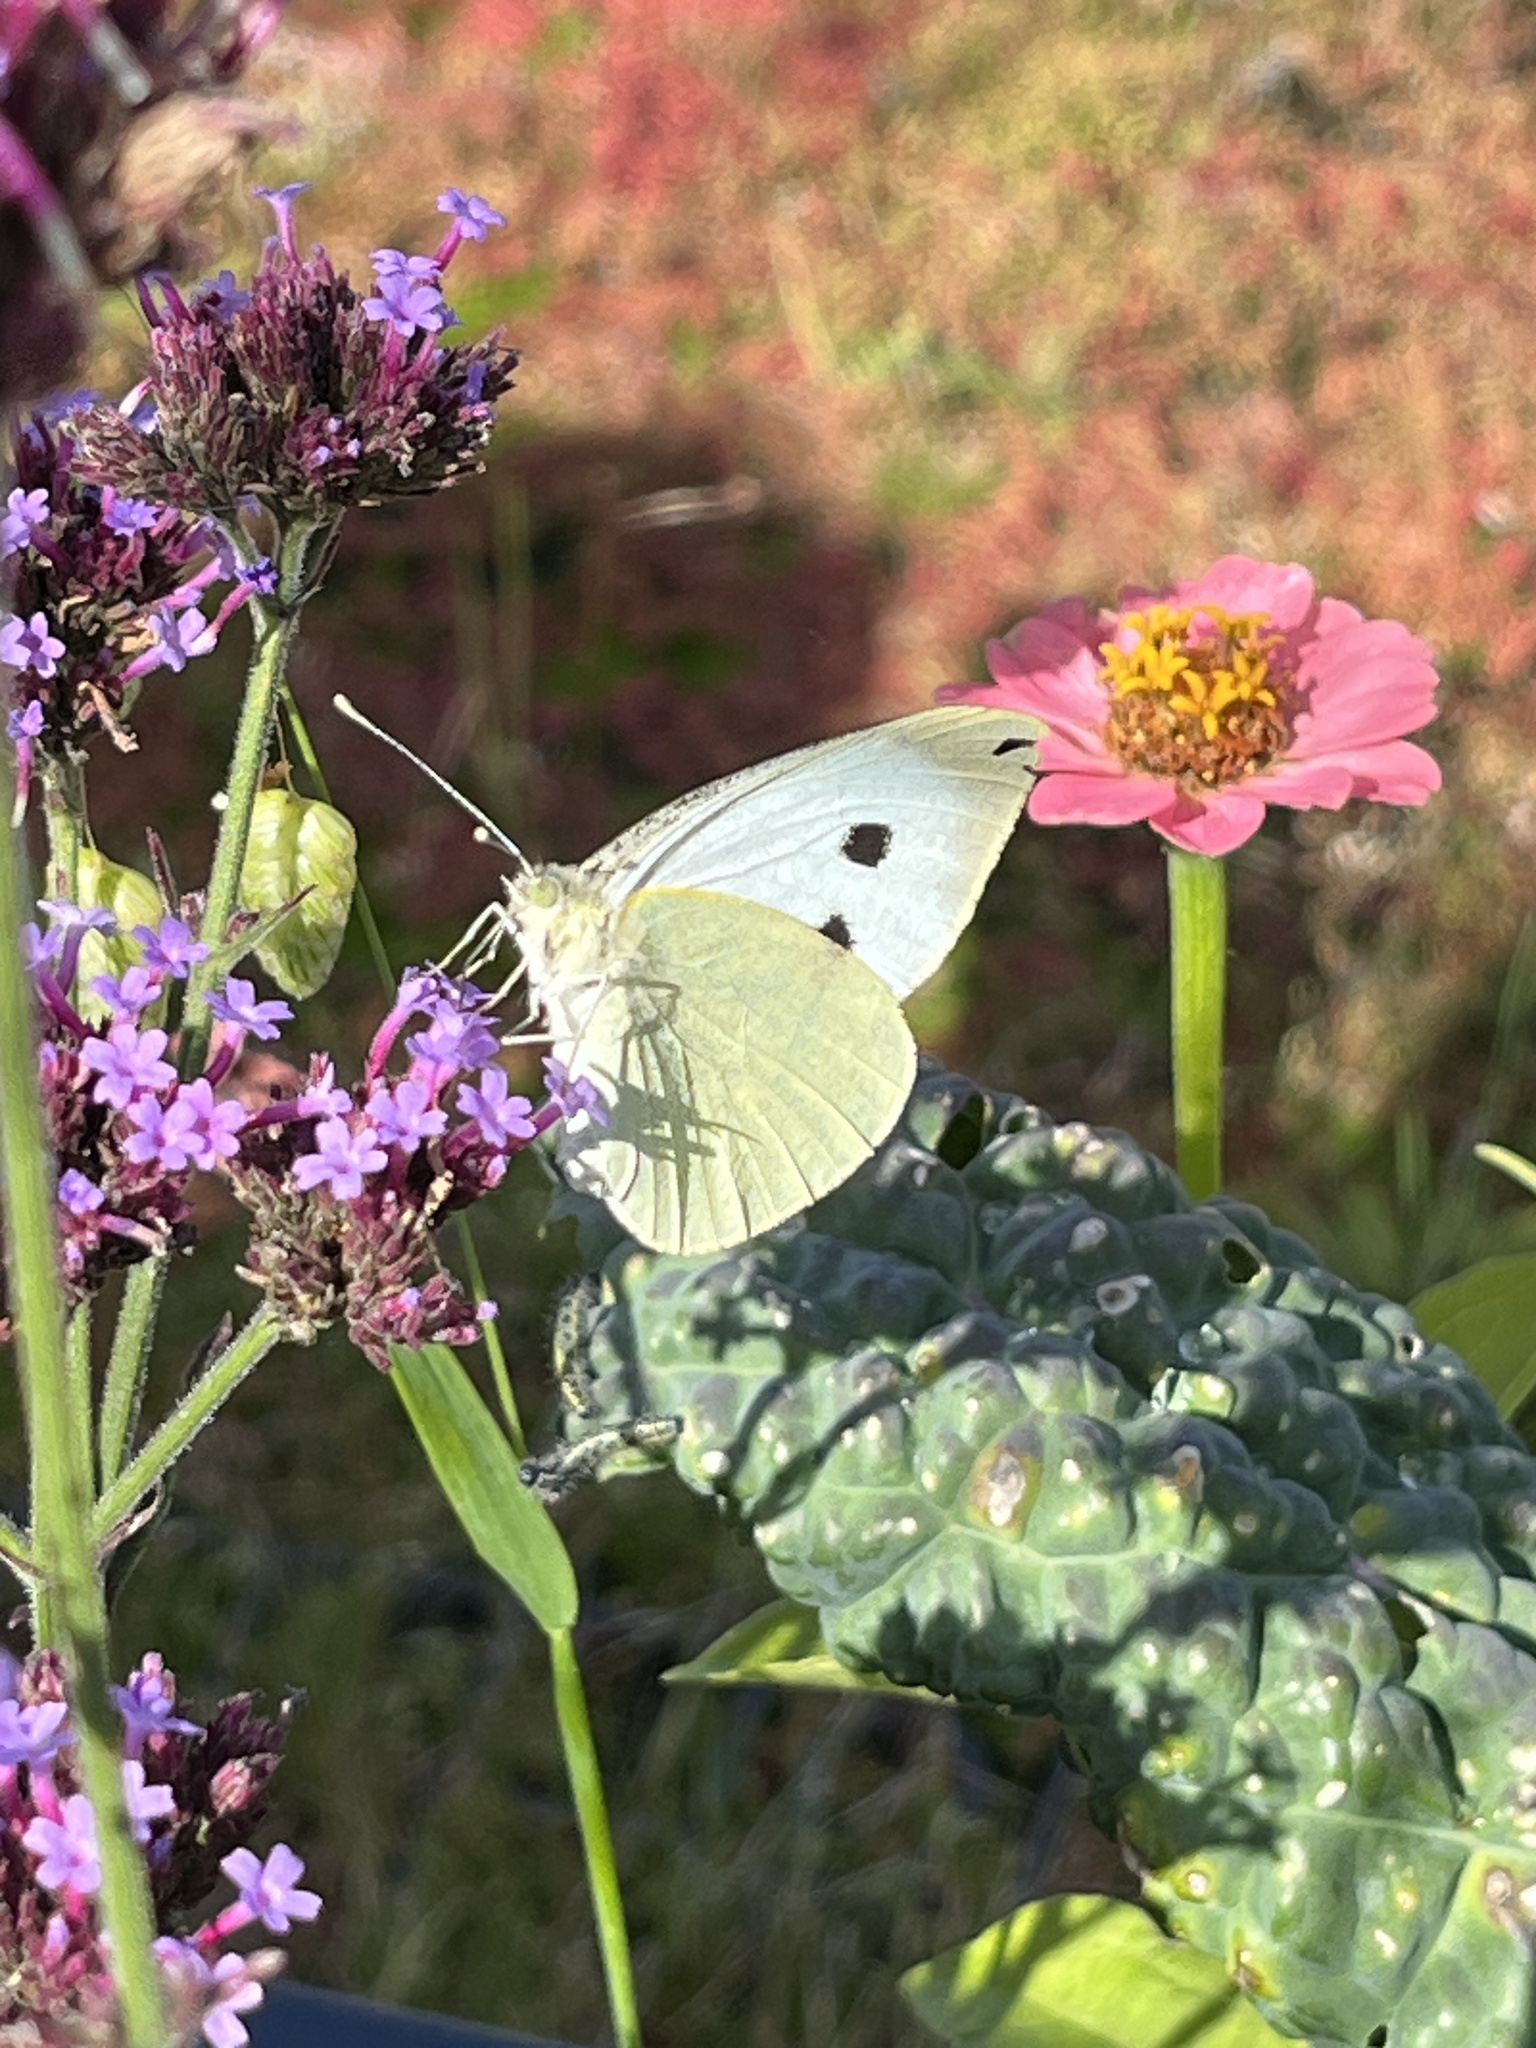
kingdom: Animalia
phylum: Arthropoda
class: Insecta
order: Lepidoptera
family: Pieridae
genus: Pieris
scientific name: Pieris brassicae
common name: Large white
